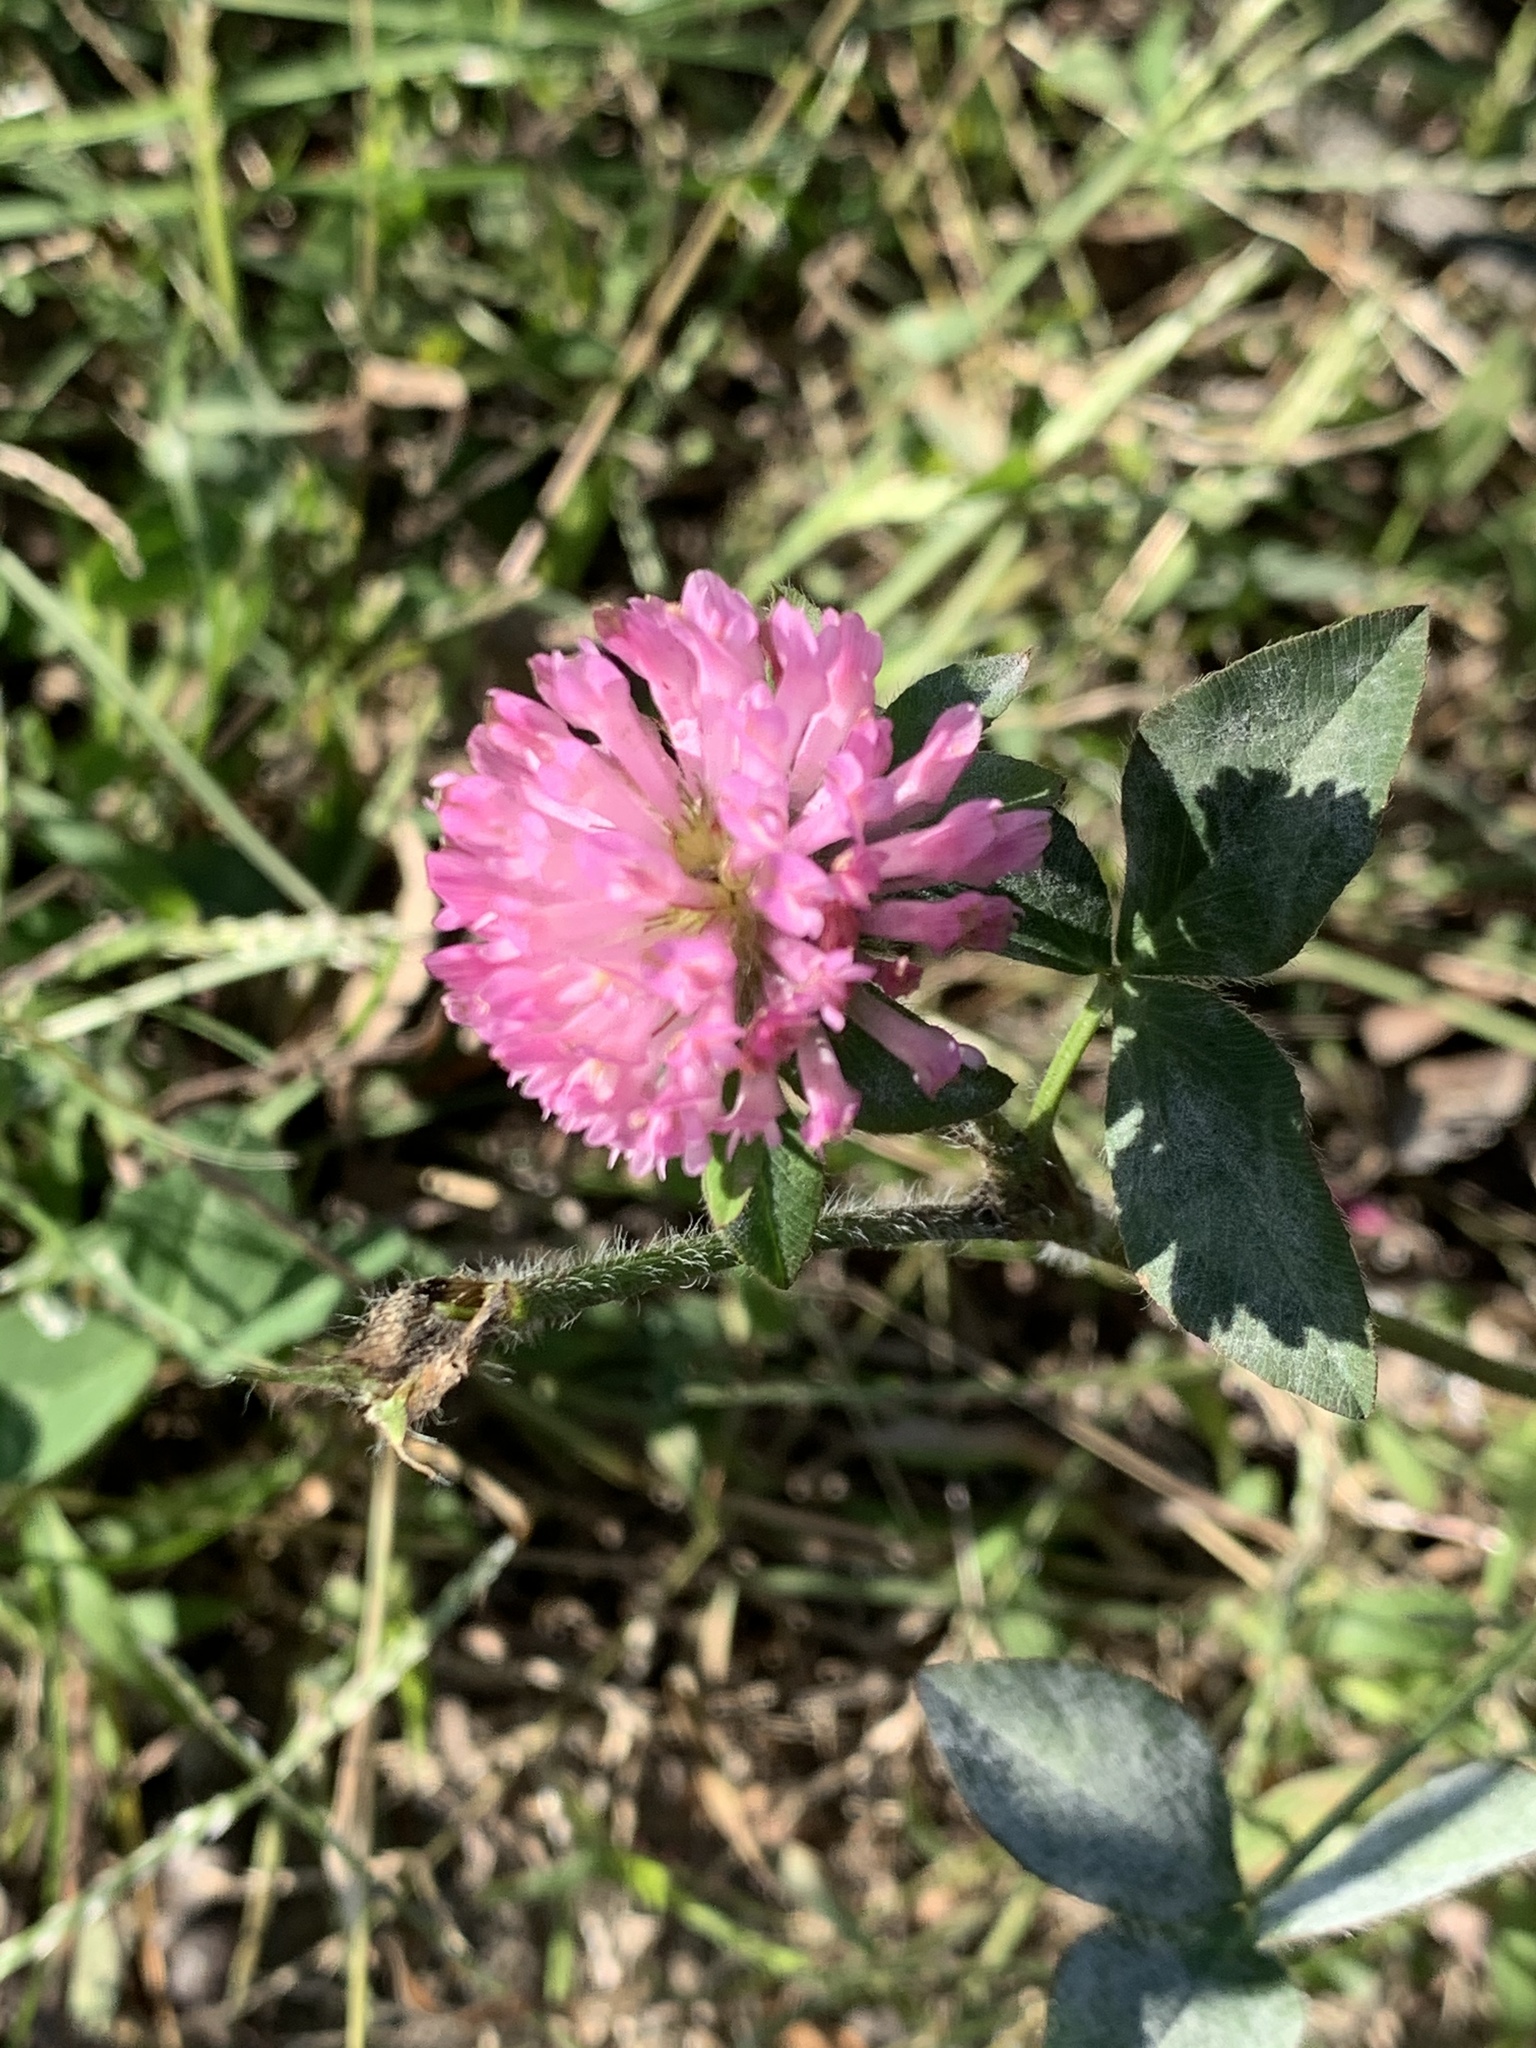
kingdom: Plantae
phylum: Tracheophyta
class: Magnoliopsida
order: Fabales
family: Fabaceae
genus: Trifolium
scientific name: Trifolium pratense
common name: Red clover
